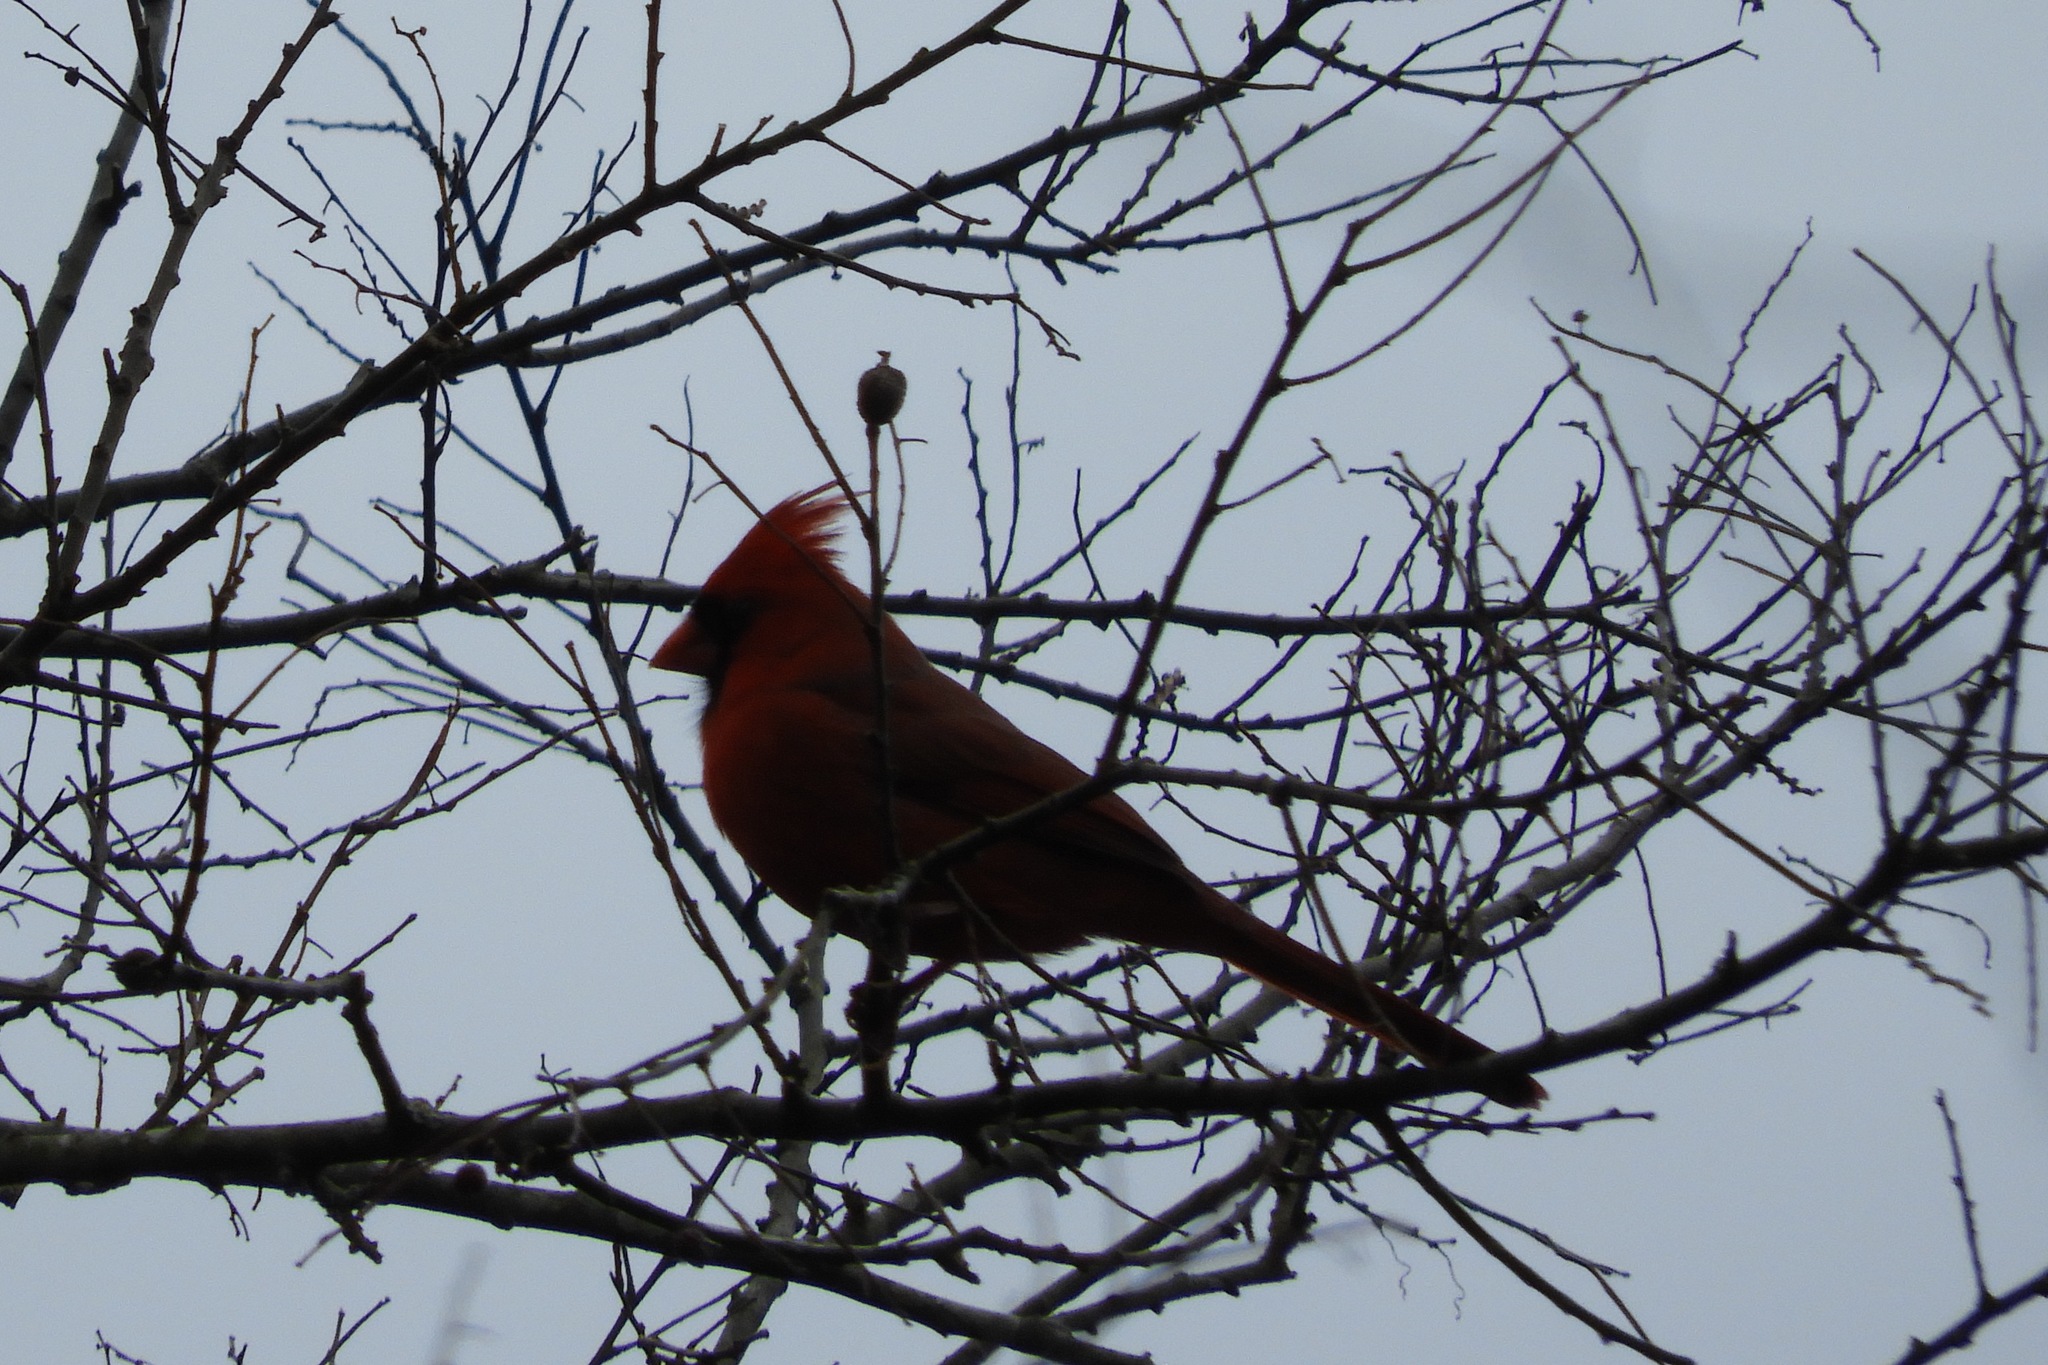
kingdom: Animalia
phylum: Chordata
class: Aves
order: Passeriformes
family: Cardinalidae
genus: Cardinalis
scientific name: Cardinalis cardinalis
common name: Northern cardinal
